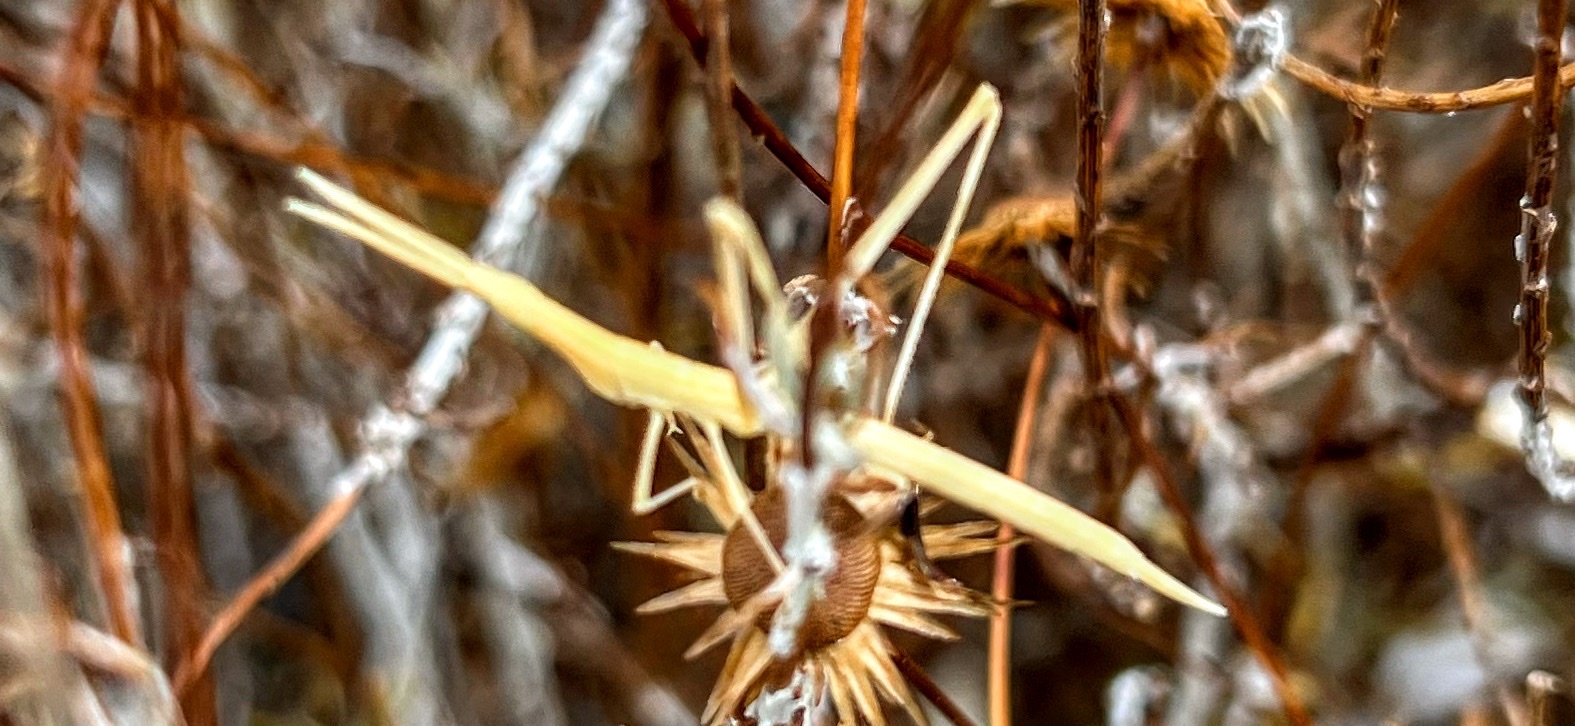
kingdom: Animalia
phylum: Arthropoda
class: Insecta
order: Orthoptera
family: Acrididae
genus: Acrida
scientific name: Acrida turrita
